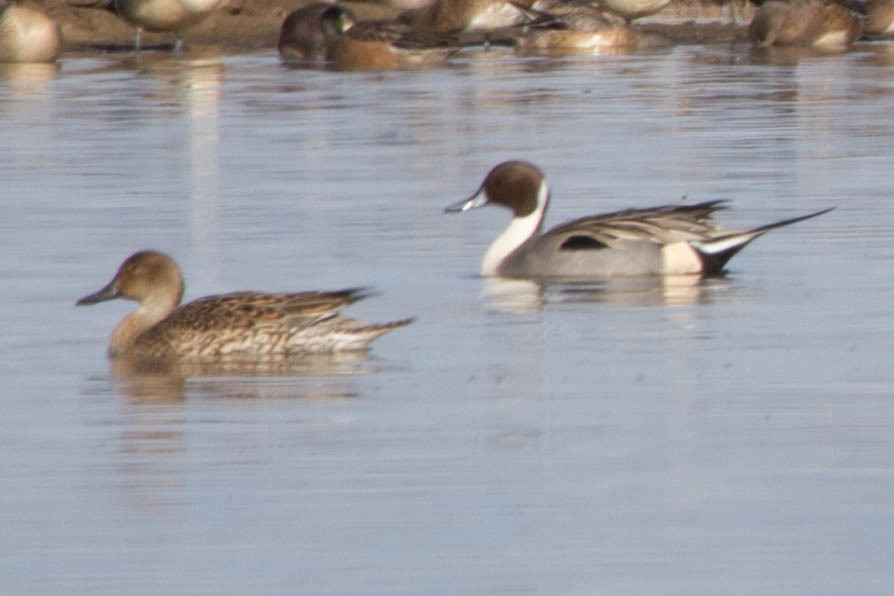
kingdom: Animalia
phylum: Chordata
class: Aves
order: Anseriformes
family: Anatidae
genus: Anas
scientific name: Anas acuta
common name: Northern pintail
